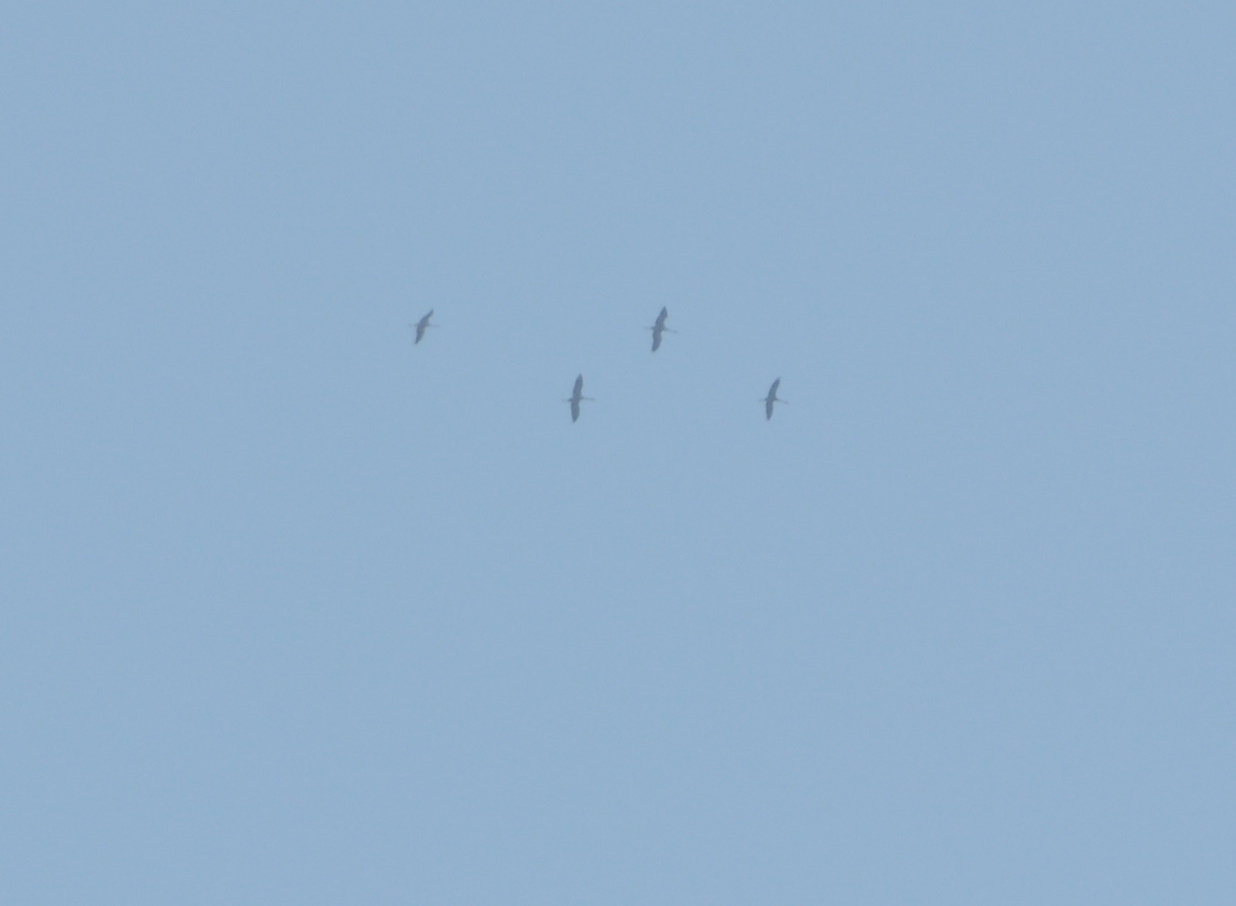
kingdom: Animalia
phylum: Chordata
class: Aves
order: Gruiformes
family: Gruidae
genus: Grus
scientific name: Grus grus
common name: Common crane
